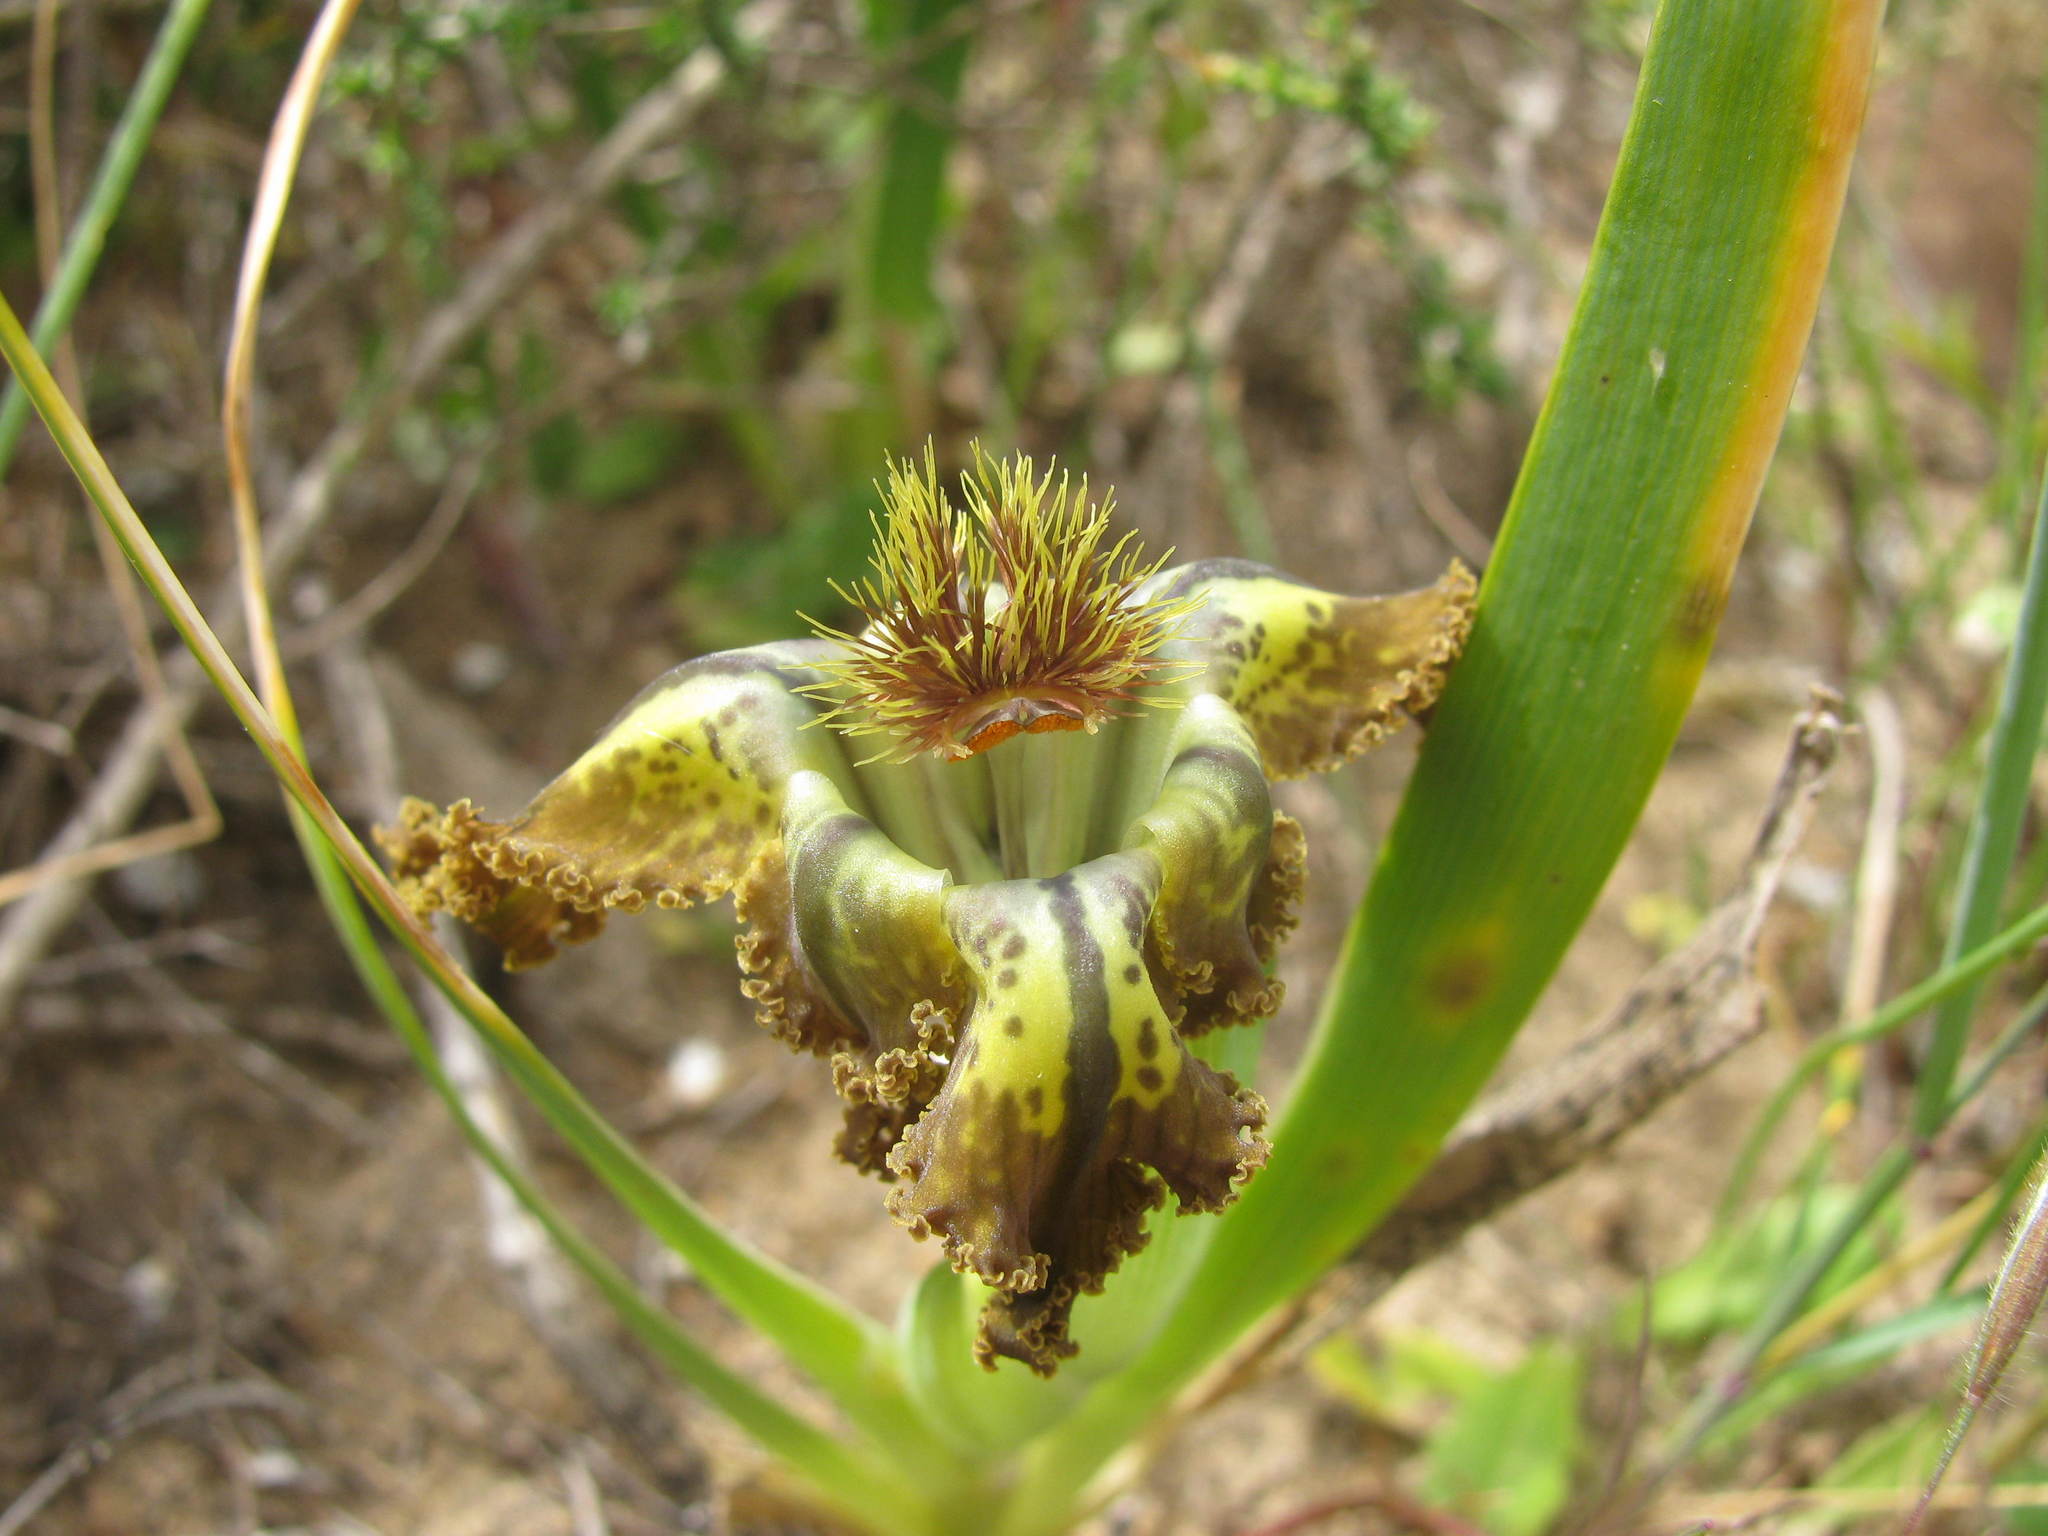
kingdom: Plantae
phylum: Tracheophyta
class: Liliopsida
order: Asparagales
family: Iridaceae
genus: Ferraria
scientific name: Ferraria variabilis
